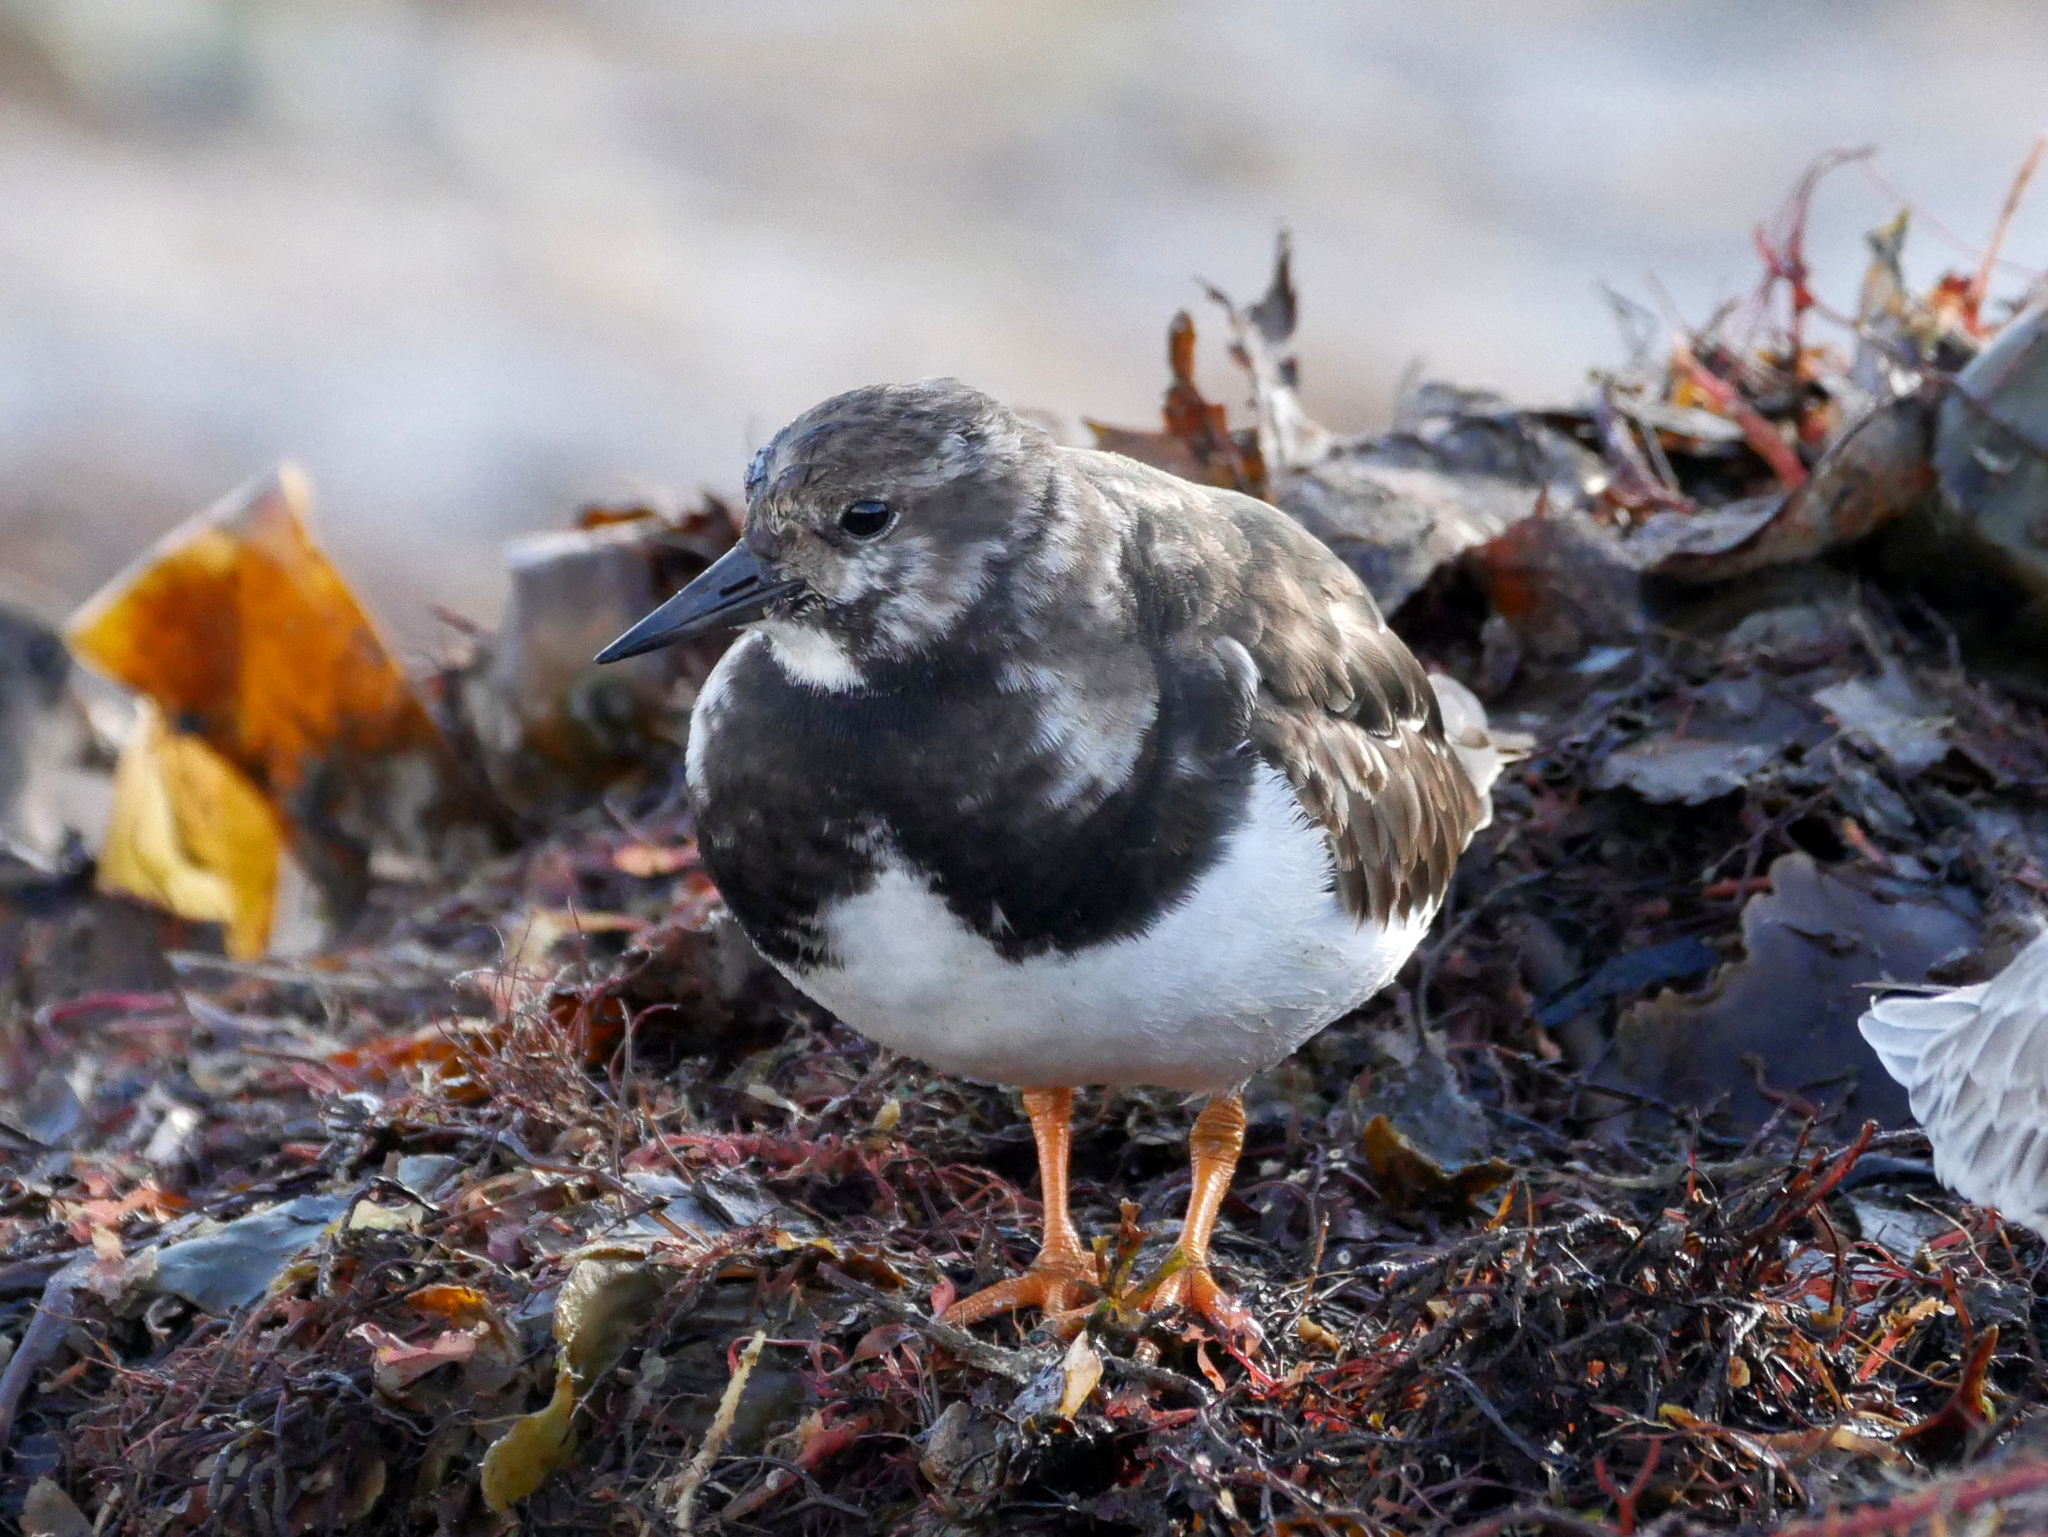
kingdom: Animalia
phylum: Chordata
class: Aves
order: Charadriiformes
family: Scolopacidae
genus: Arenaria
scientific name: Arenaria interpres
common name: Ruddy turnstone
